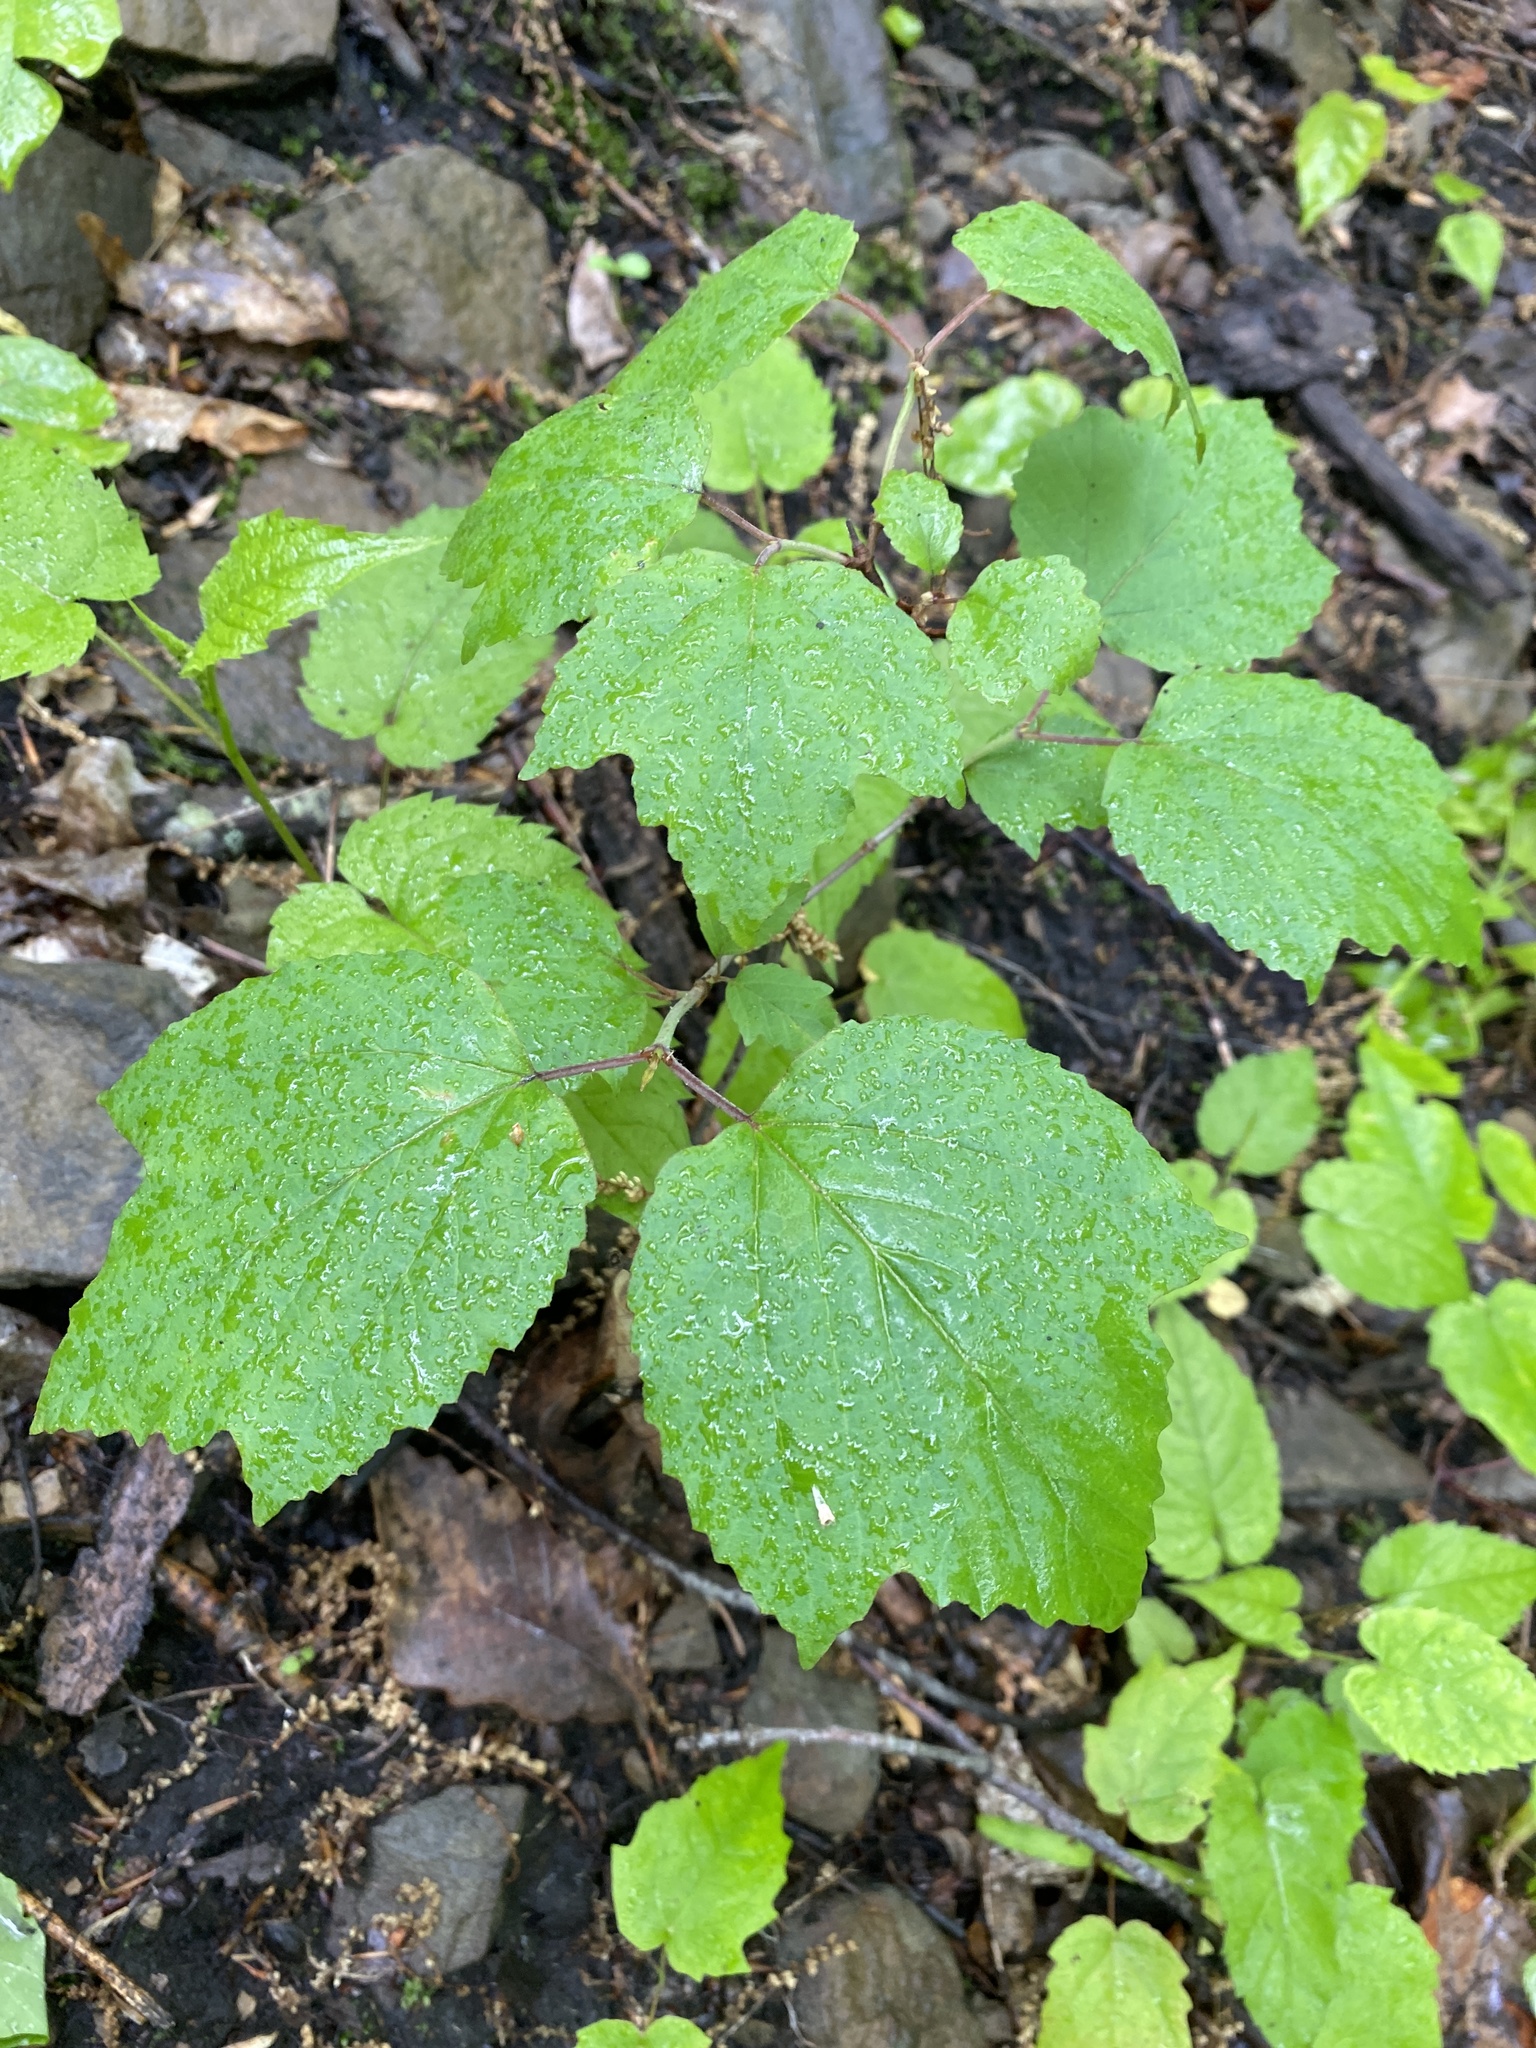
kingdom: Plantae
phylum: Tracheophyta
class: Magnoliopsida
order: Dipsacales
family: Viburnaceae
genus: Viburnum
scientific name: Viburnum acerifolium
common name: Dockmackie
